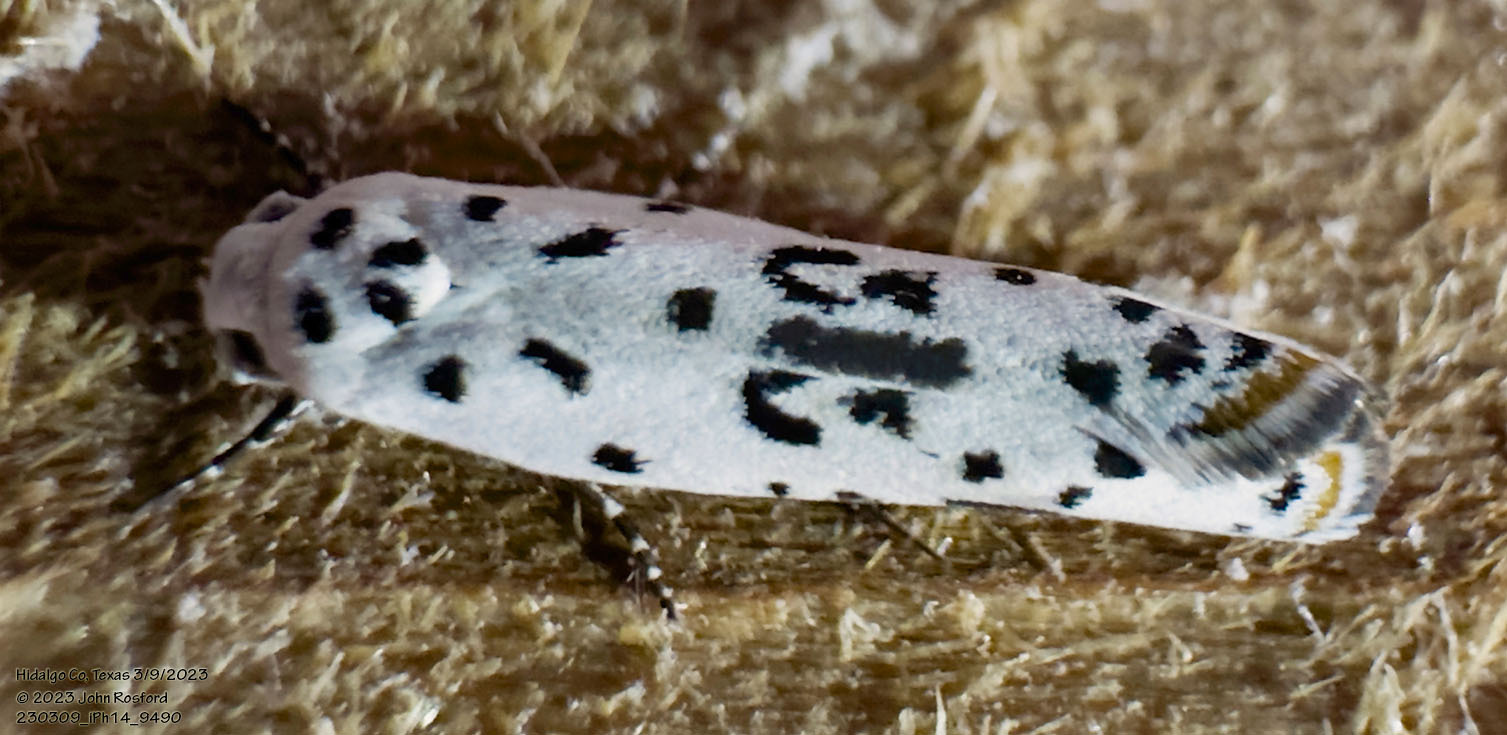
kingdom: Animalia
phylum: Arthropoda
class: Insecta
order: Lepidoptera
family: Ethmiidae
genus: Ethmia
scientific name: Ethmia bittenella
